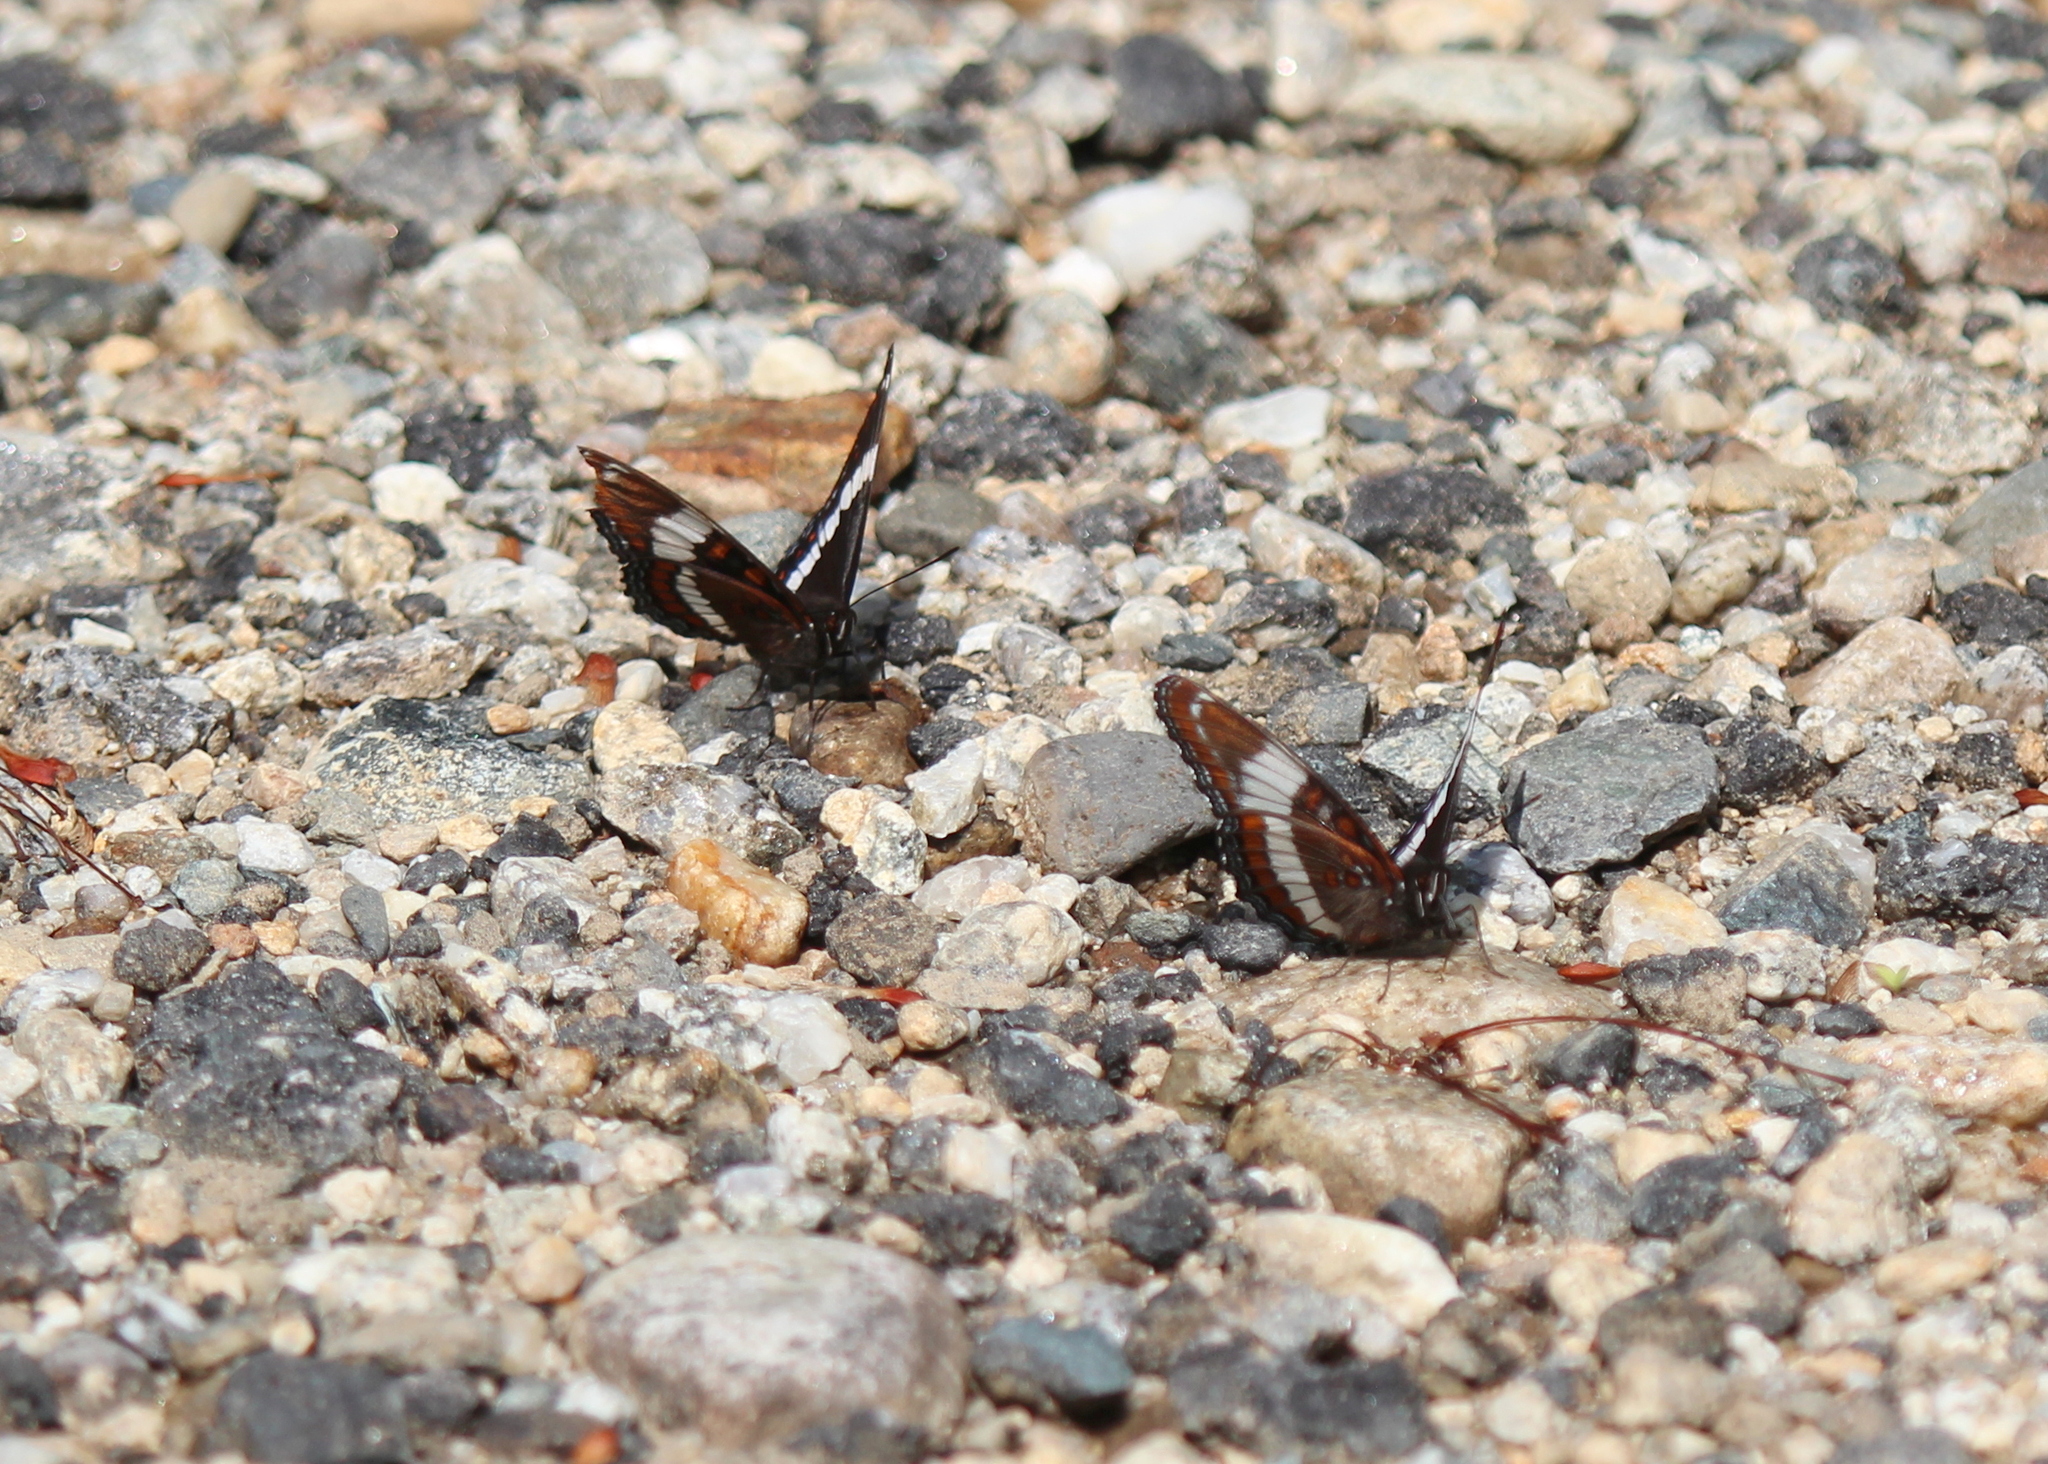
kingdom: Animalia
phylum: Arthropoda
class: Insecta
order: Lepidoptera
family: Nymphalidae
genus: Limenitis
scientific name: Limenitis arthemis
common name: Red-spotted admiral
